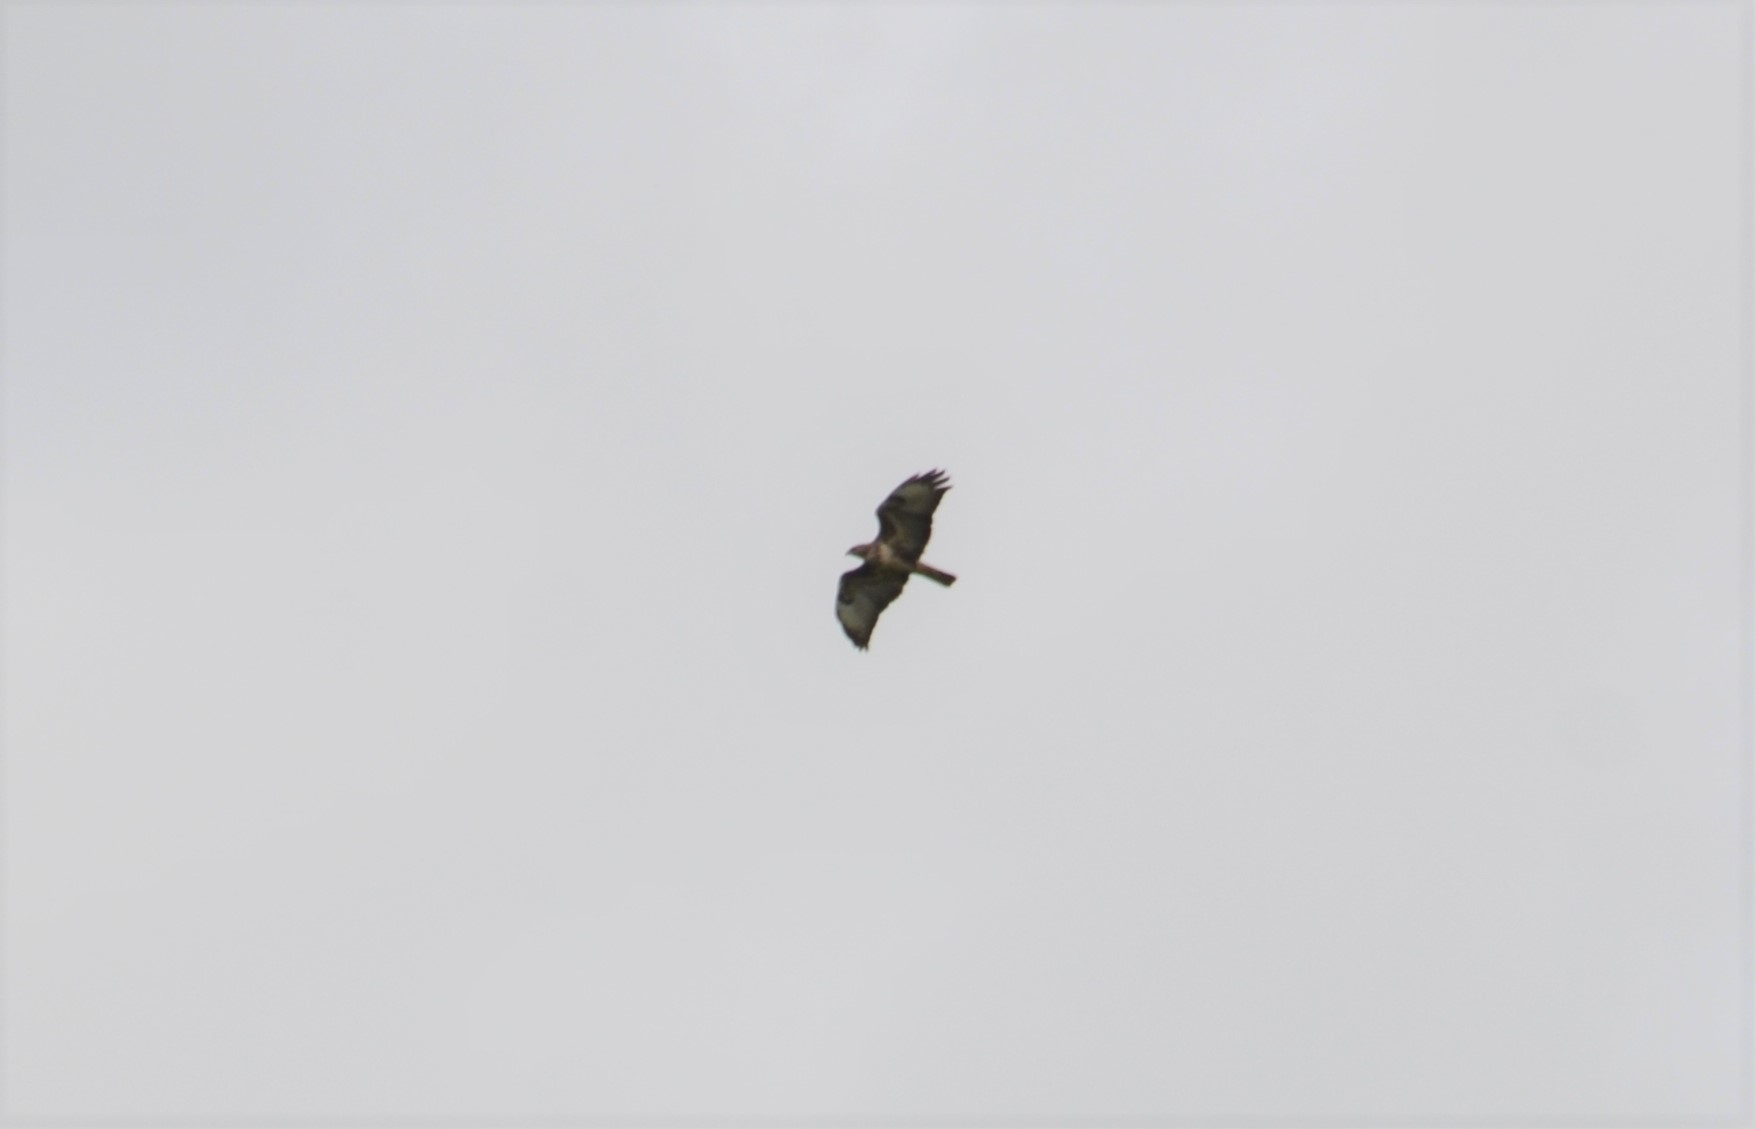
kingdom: Animalia
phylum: Chordata
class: Aves
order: Accipitriformes
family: Accipitridae
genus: Buteo
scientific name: Buteo buteo
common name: Common buzzard
